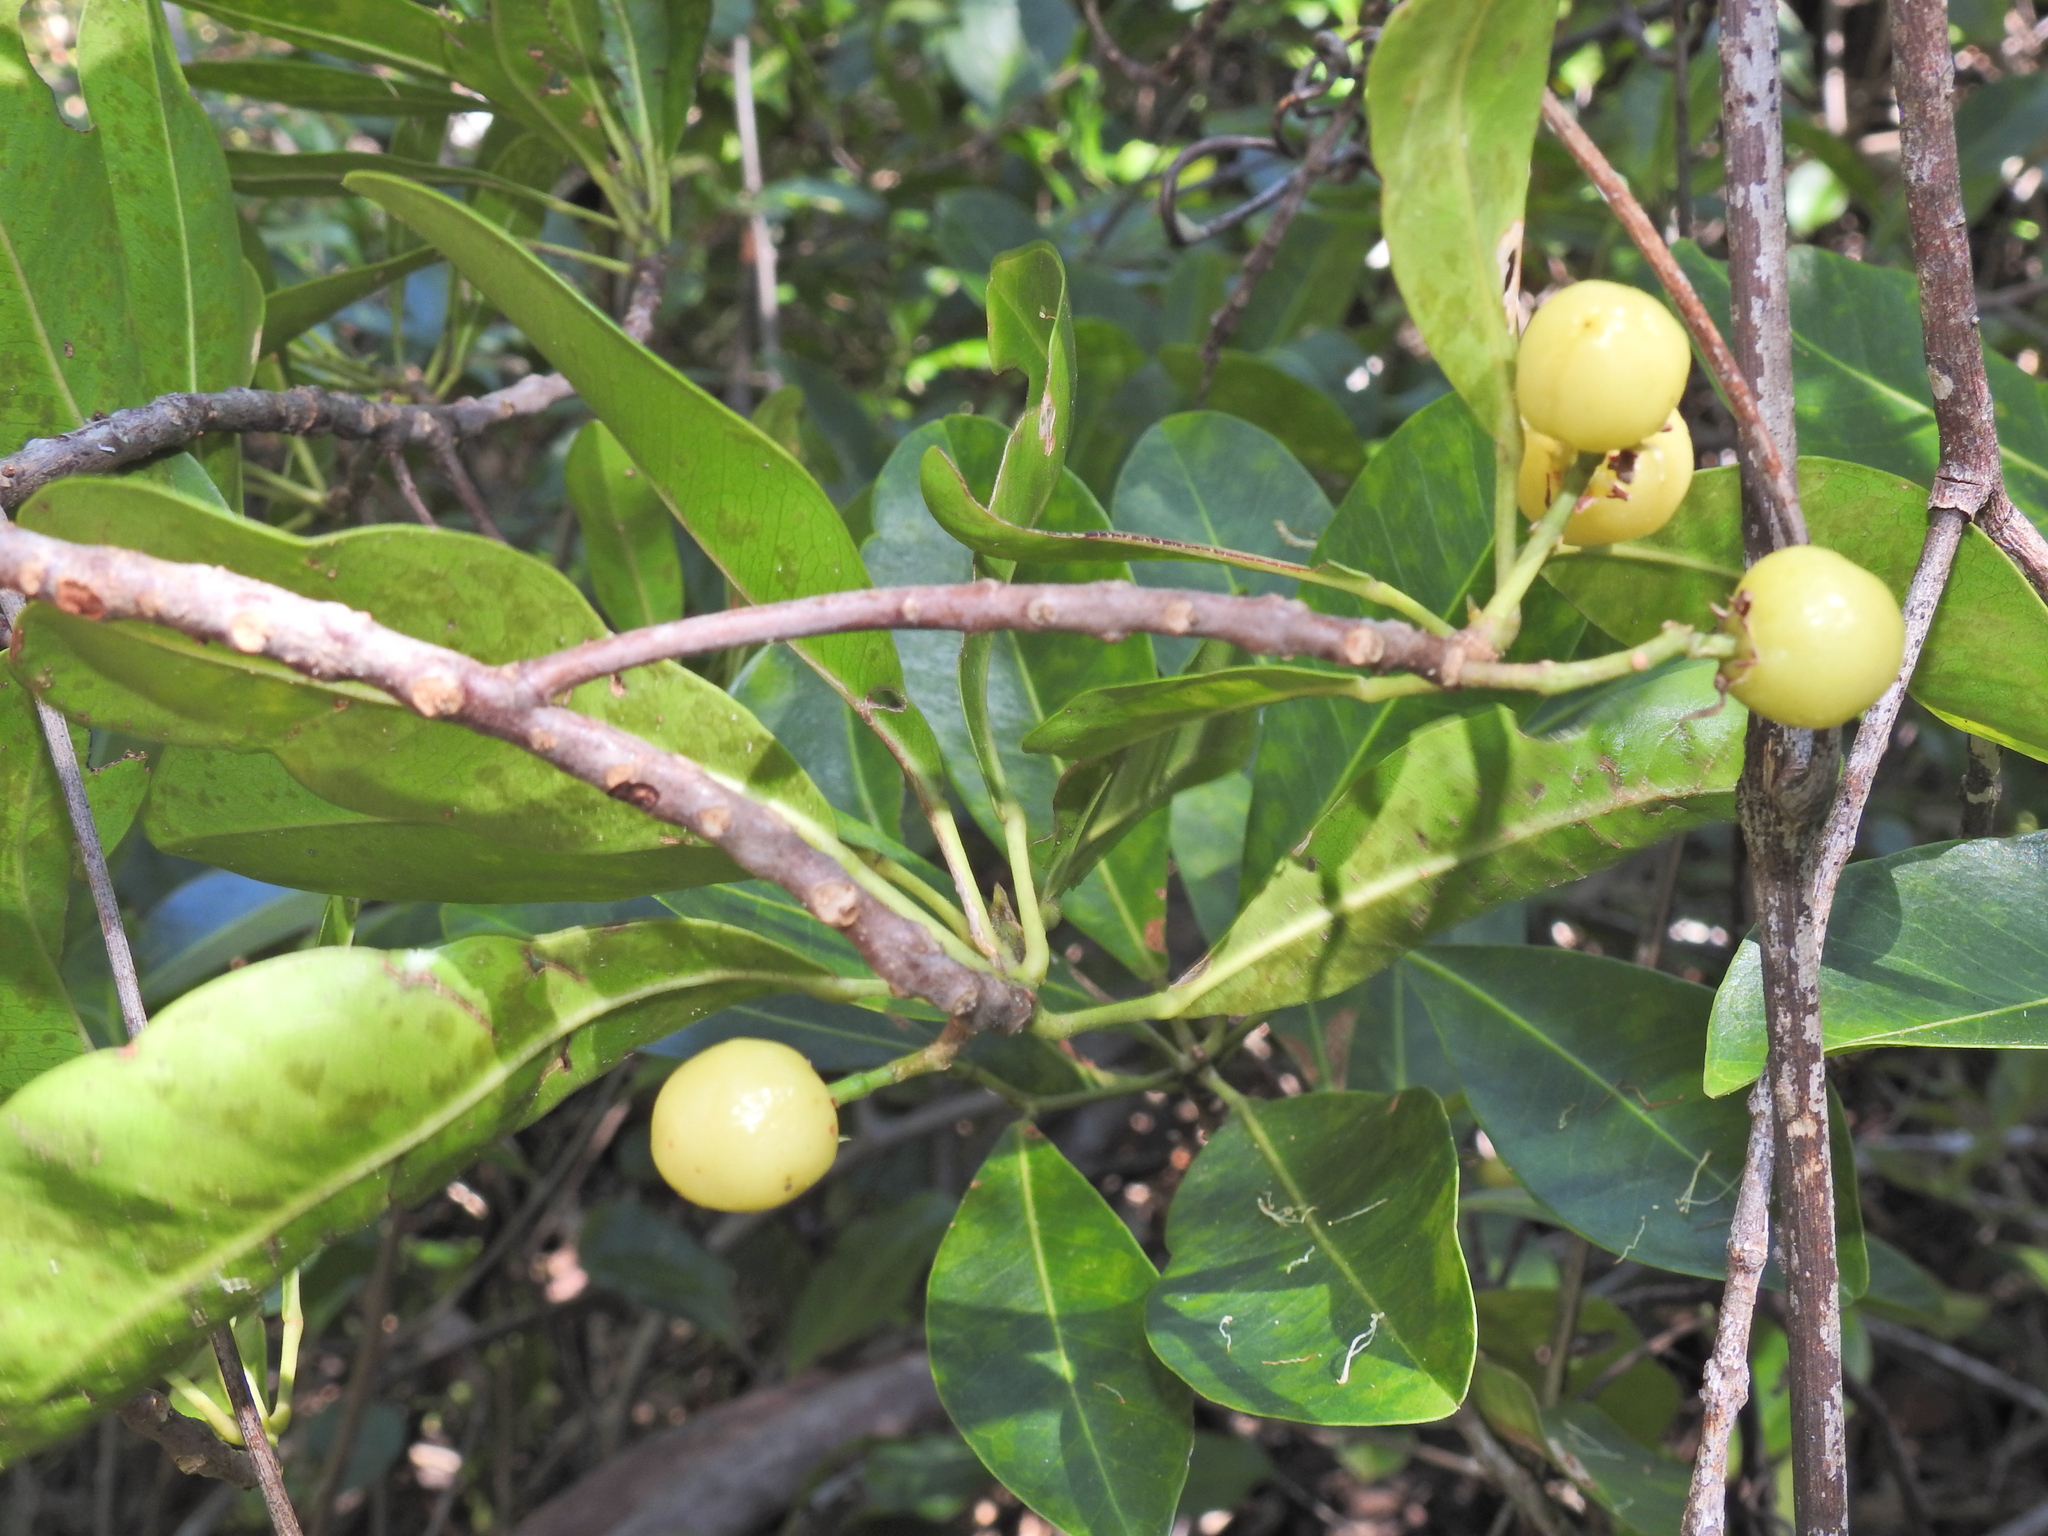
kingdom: Plantae
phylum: Tracheophyta
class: Magnoliopsida
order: Sapindales
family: Rutaceae
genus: Acronychia
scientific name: Acronychia imperforata
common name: Beach acronychia
